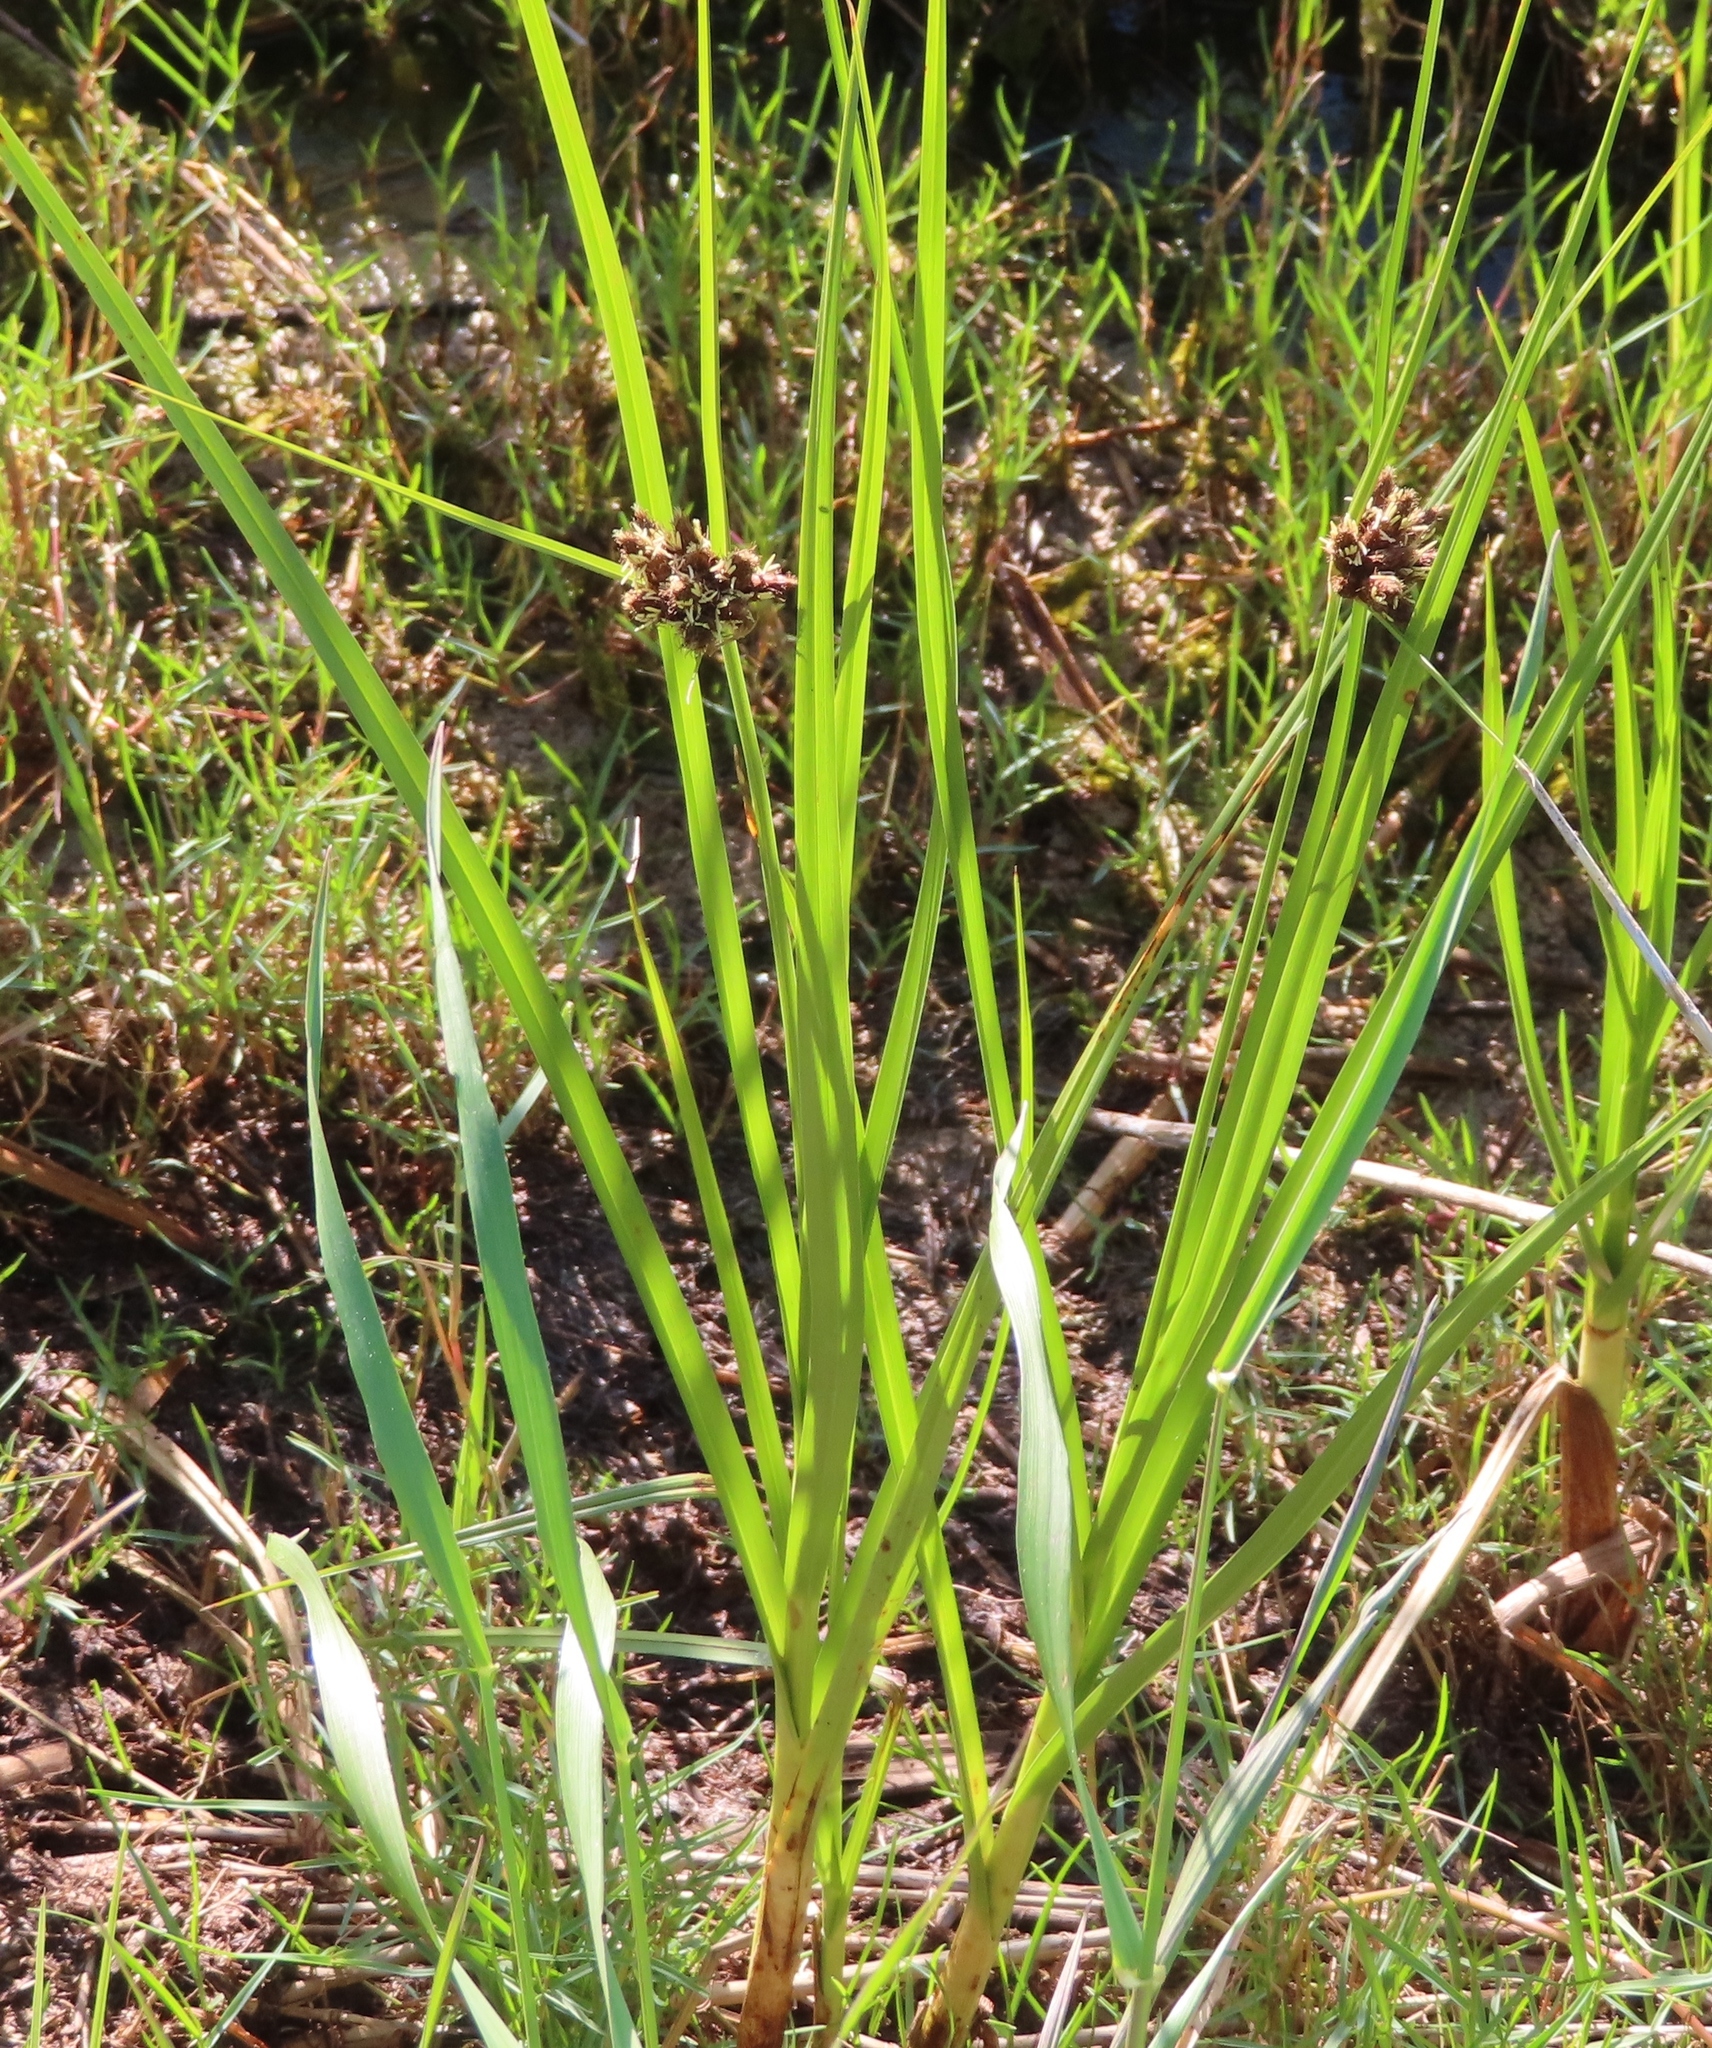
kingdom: Plantae
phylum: Tracheophyta
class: Liliopsida
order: Poales
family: Cyperaceae
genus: Bolboschoenus
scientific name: Bolboschoenus maritimus
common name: Sea club-rush
